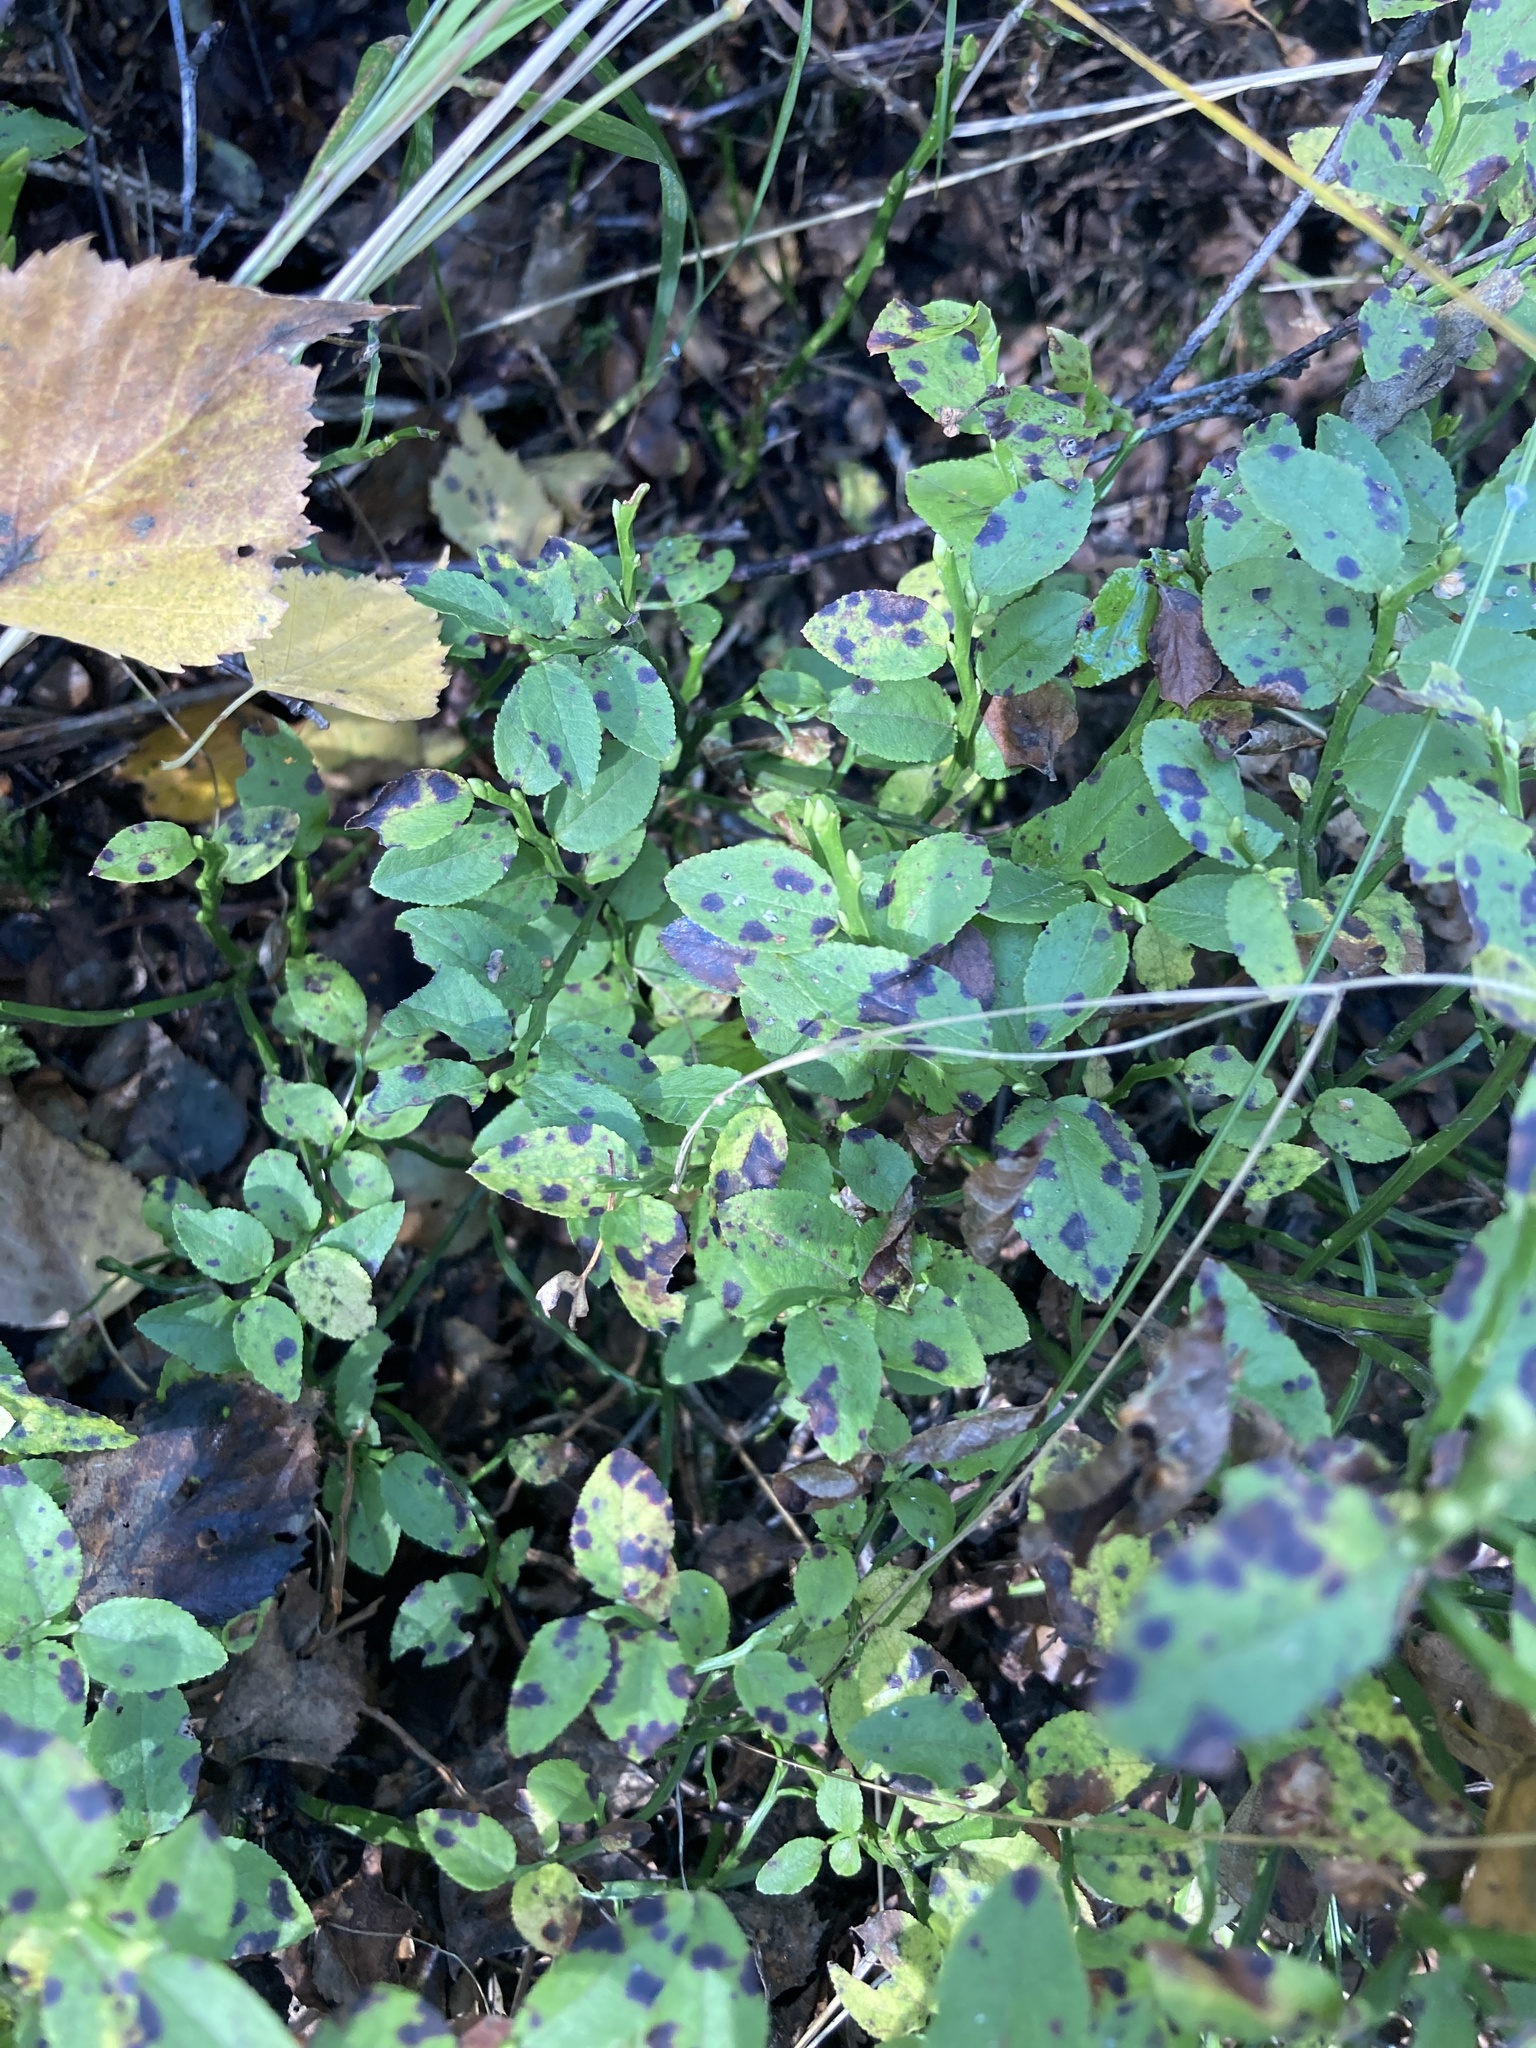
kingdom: Plantae
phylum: Tracheophyta
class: Magnoliopsida
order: Ericales
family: Ericaceae
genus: Vaccinium
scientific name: Vaccinium myrtillus
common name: Bilberry
